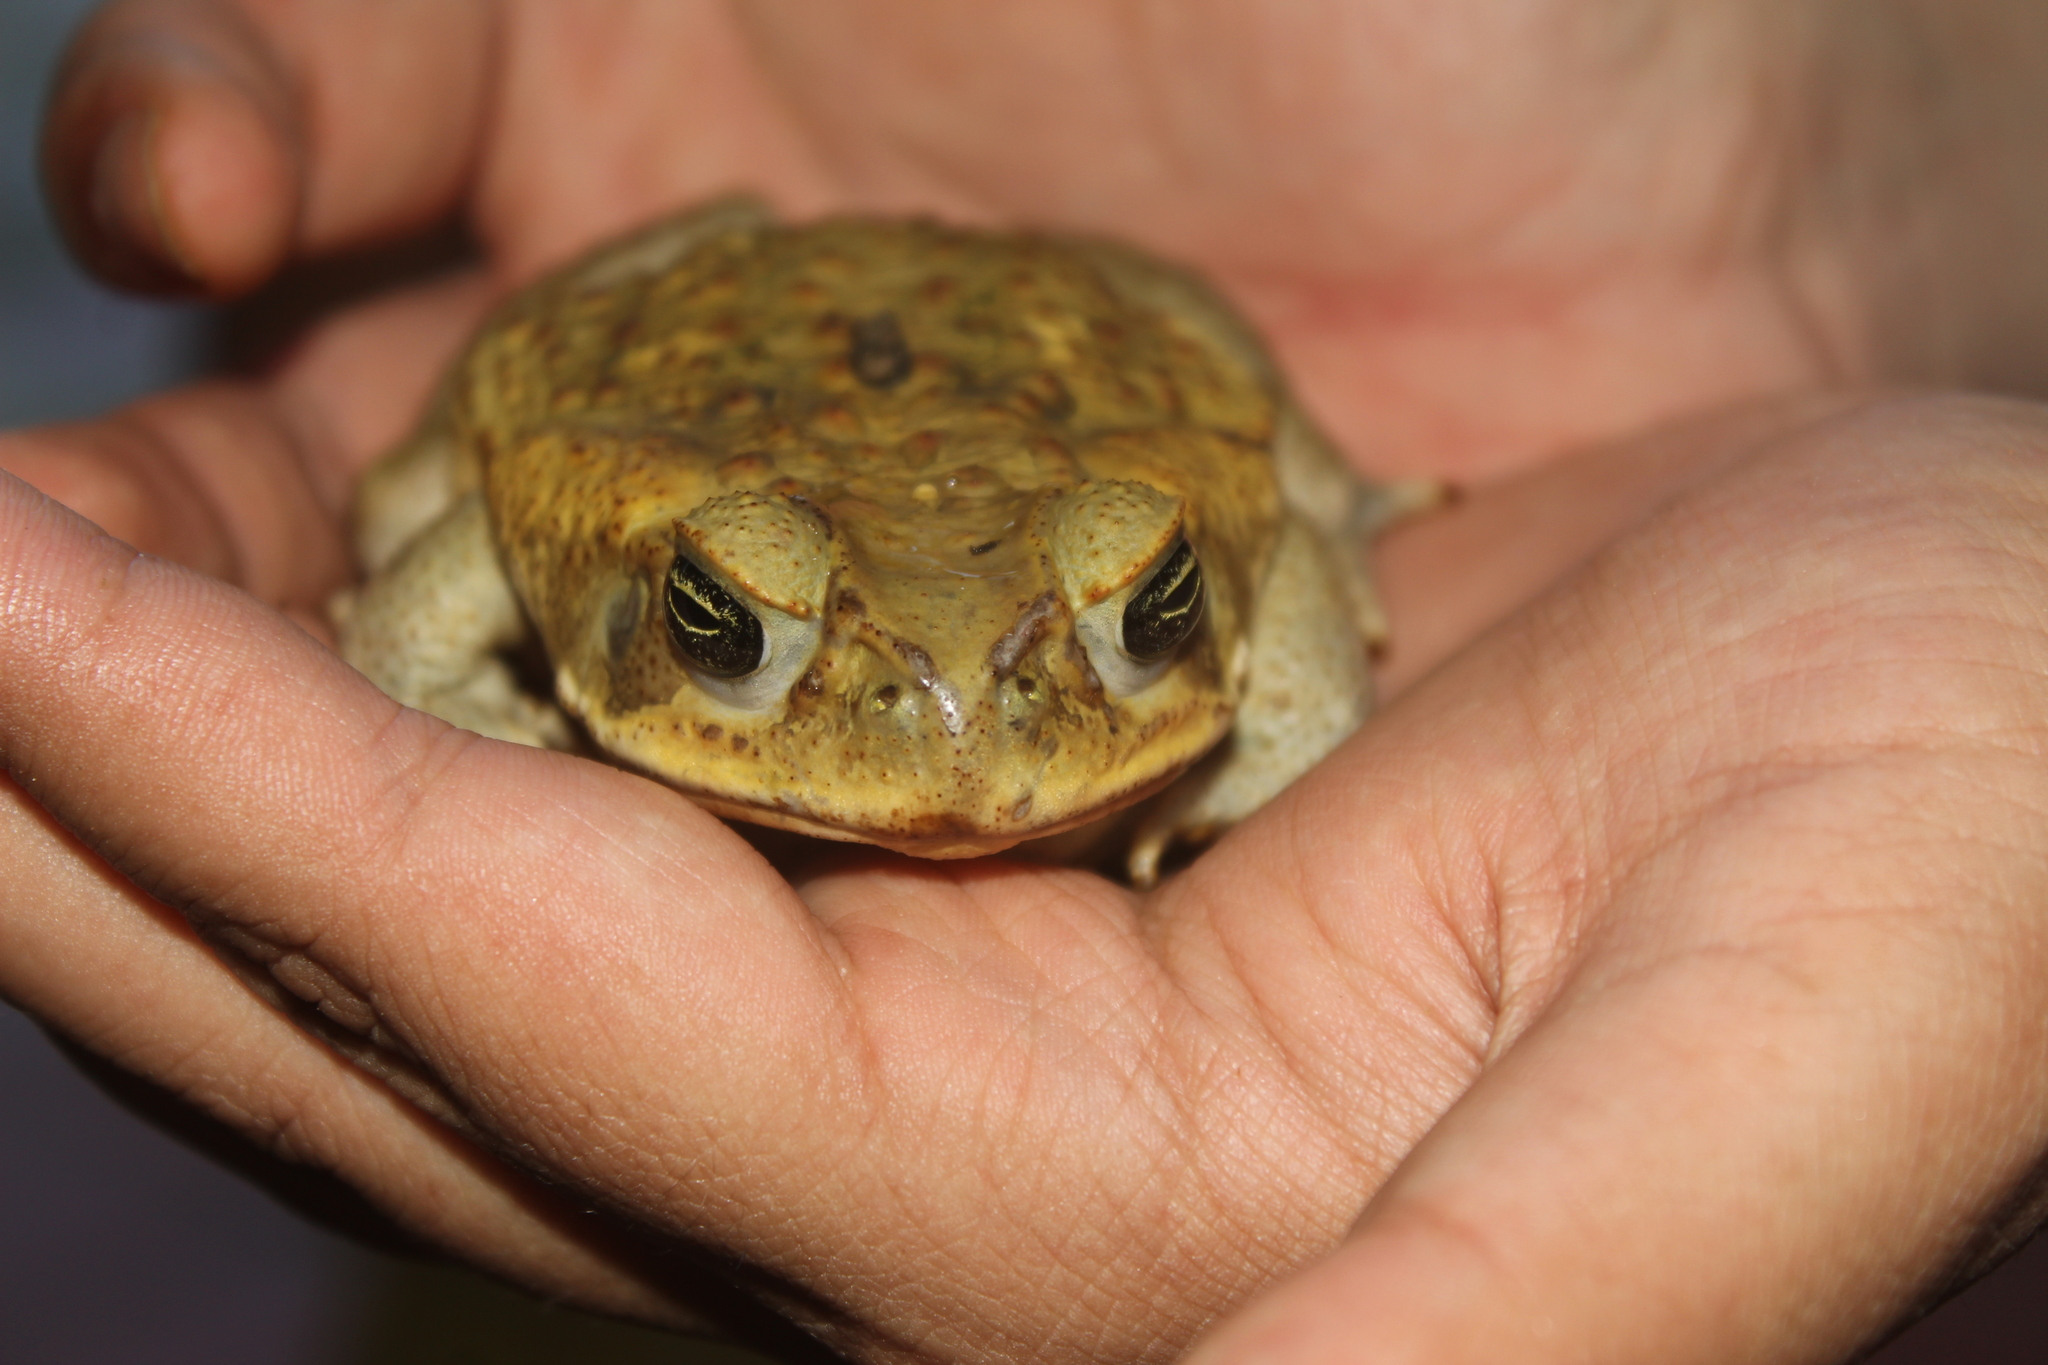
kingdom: Animalia
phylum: Chordata
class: Amphibia
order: Anura
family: Bufonidae
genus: Rhinella
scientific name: Rhinella marina
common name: Cane toad
